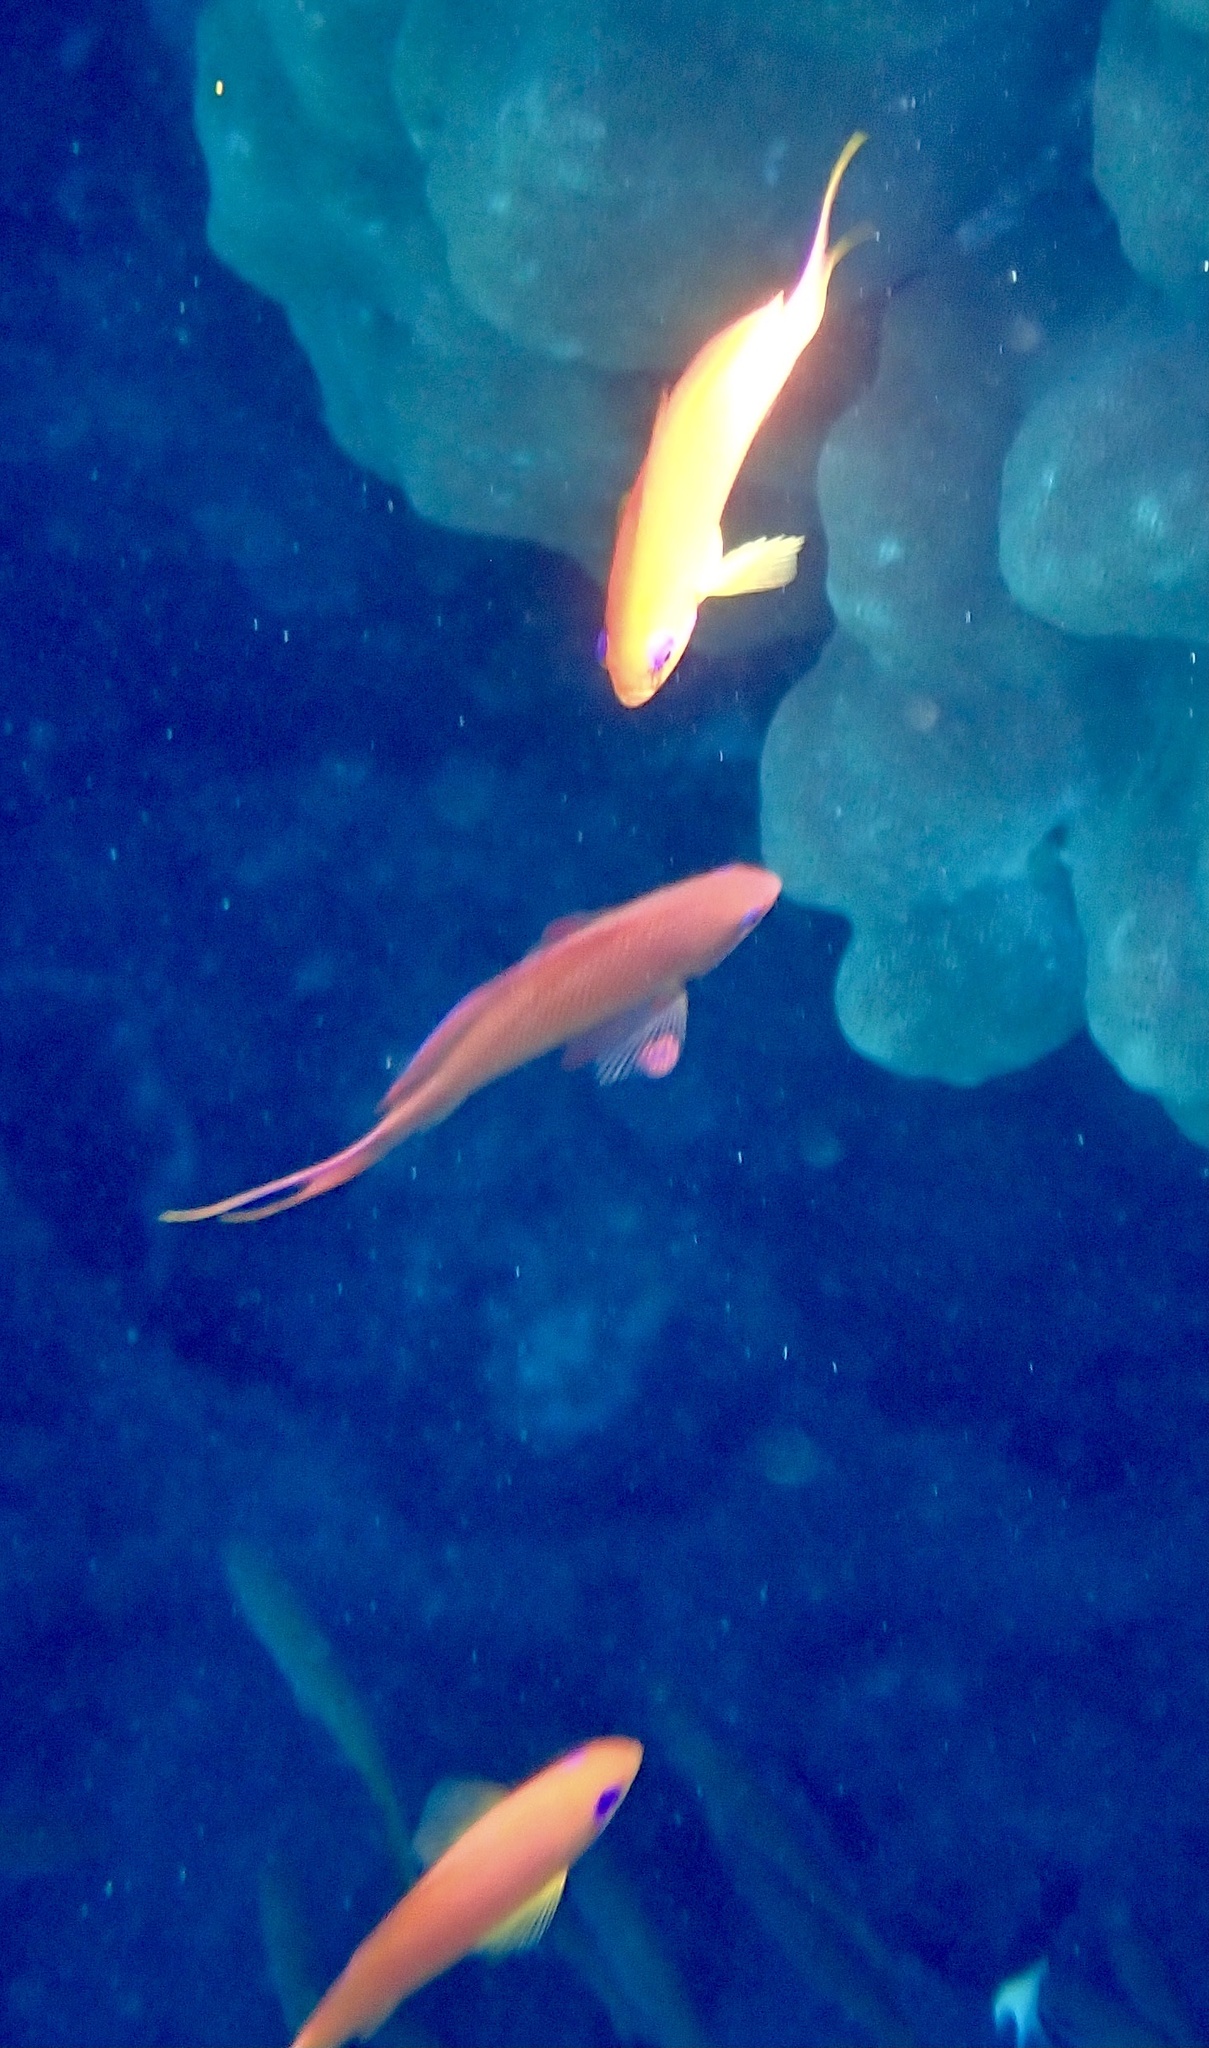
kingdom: Animalia
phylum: Chordata
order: Perciformes
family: Serranidae
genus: Pseudanthias
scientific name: Pseudanthias squamipinnis
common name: Scalefin anthias
